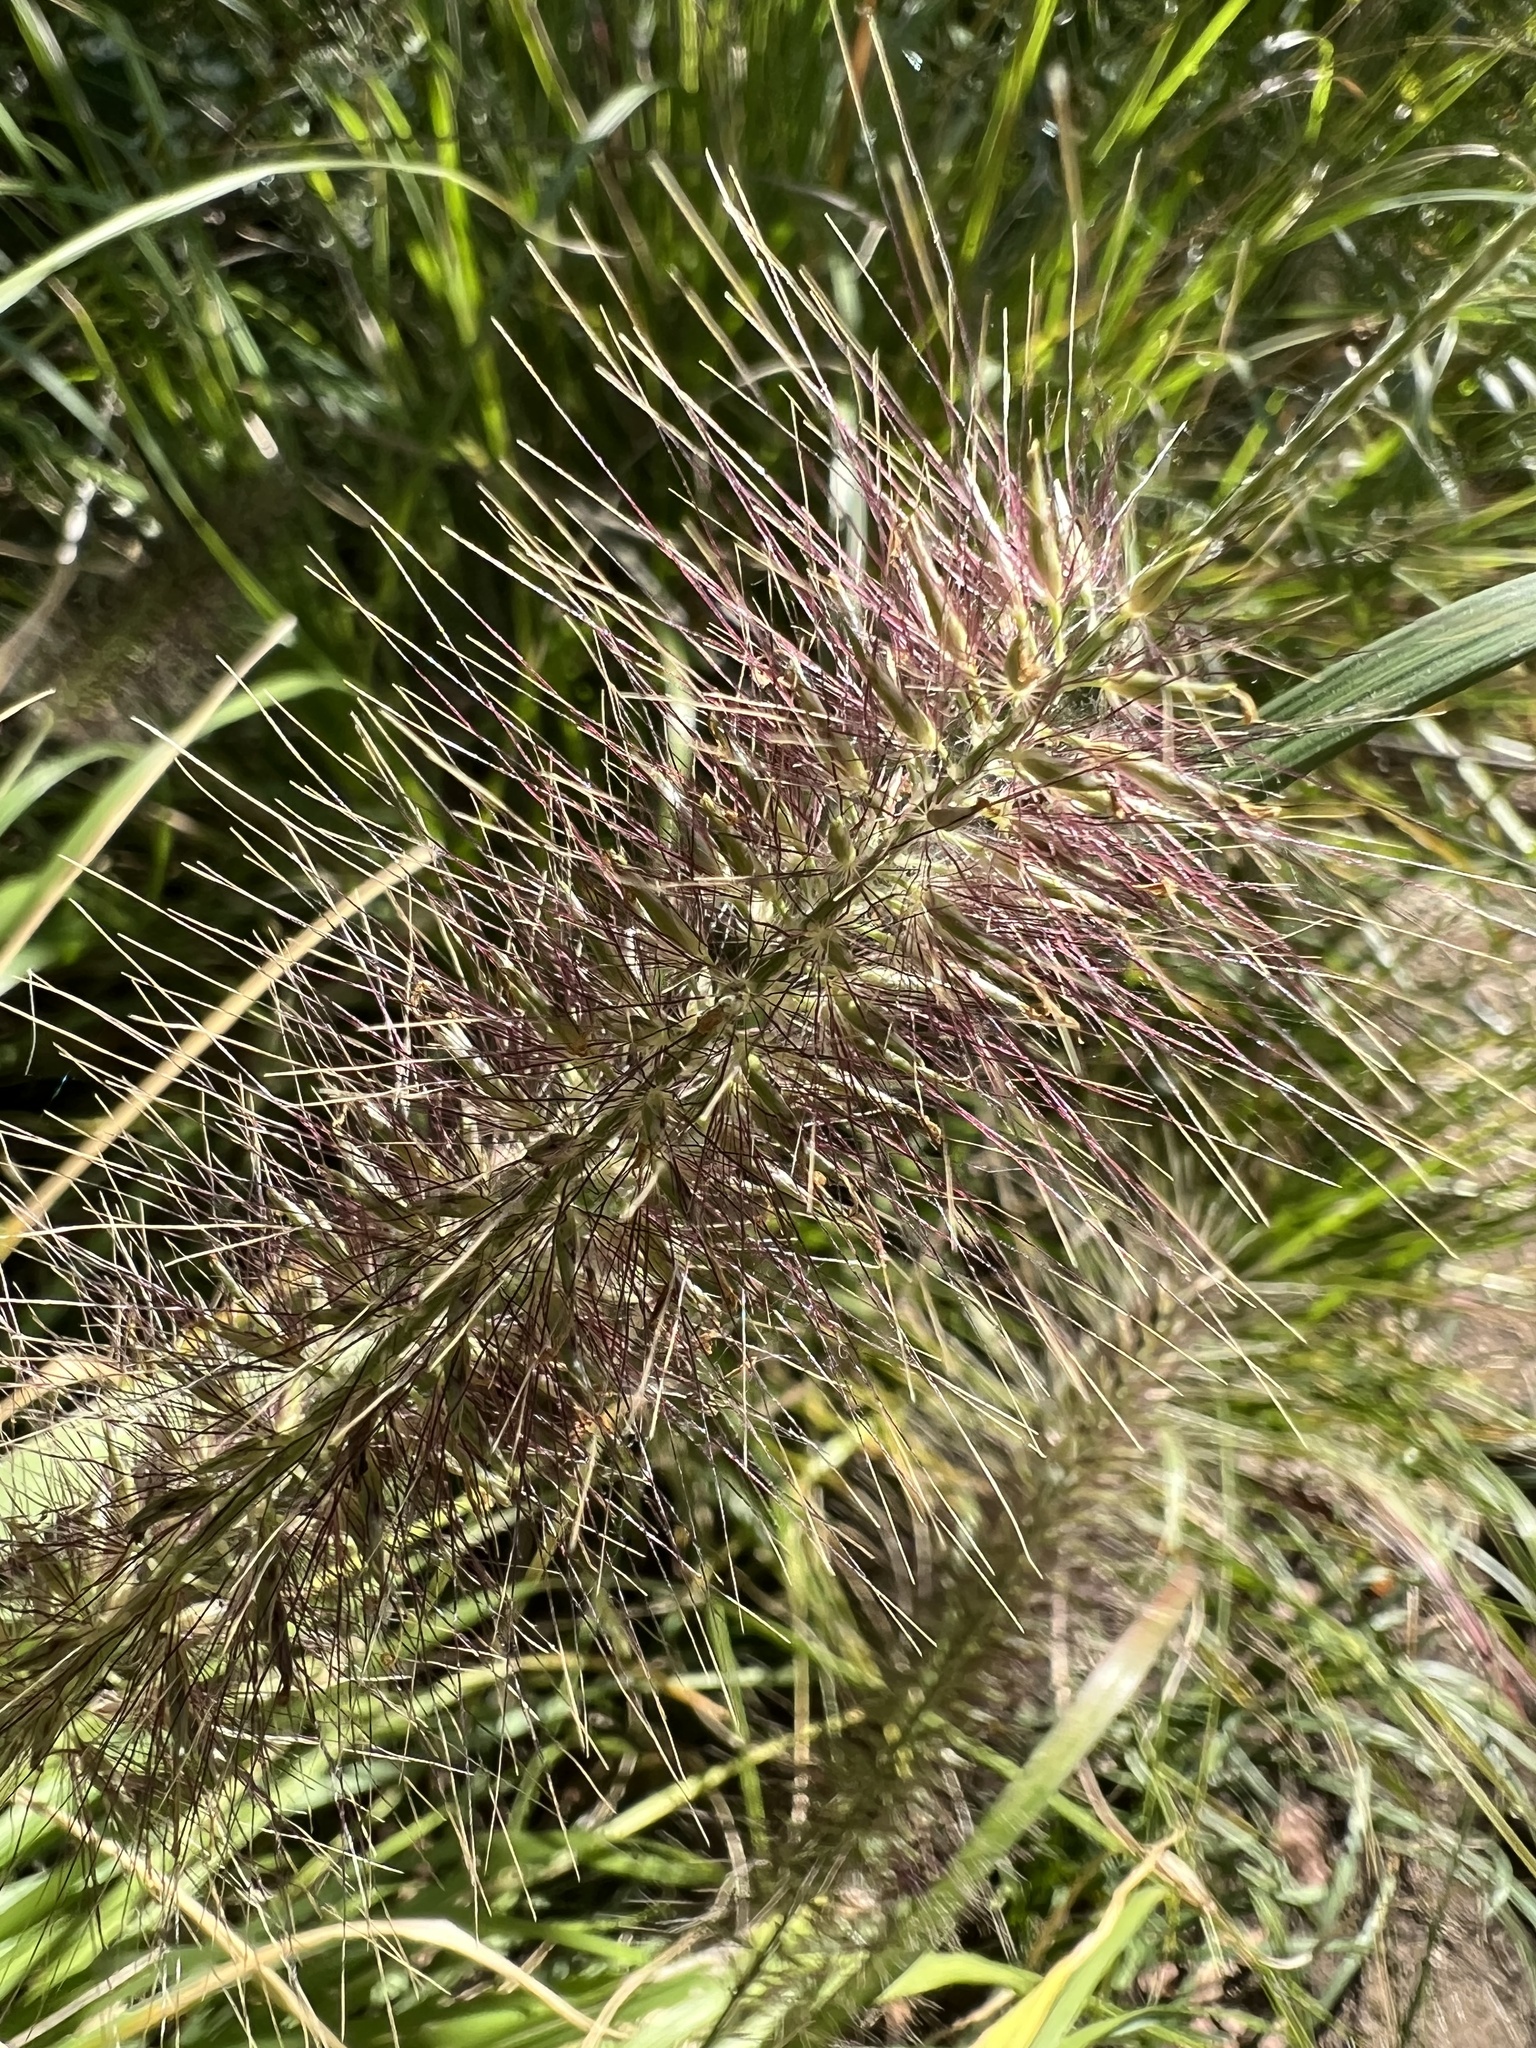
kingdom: Plantae
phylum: Tracheophyta
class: Liliopsida
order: Poales
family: Poaceae
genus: Cenchrus
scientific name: Cenchrus alopecuroides
